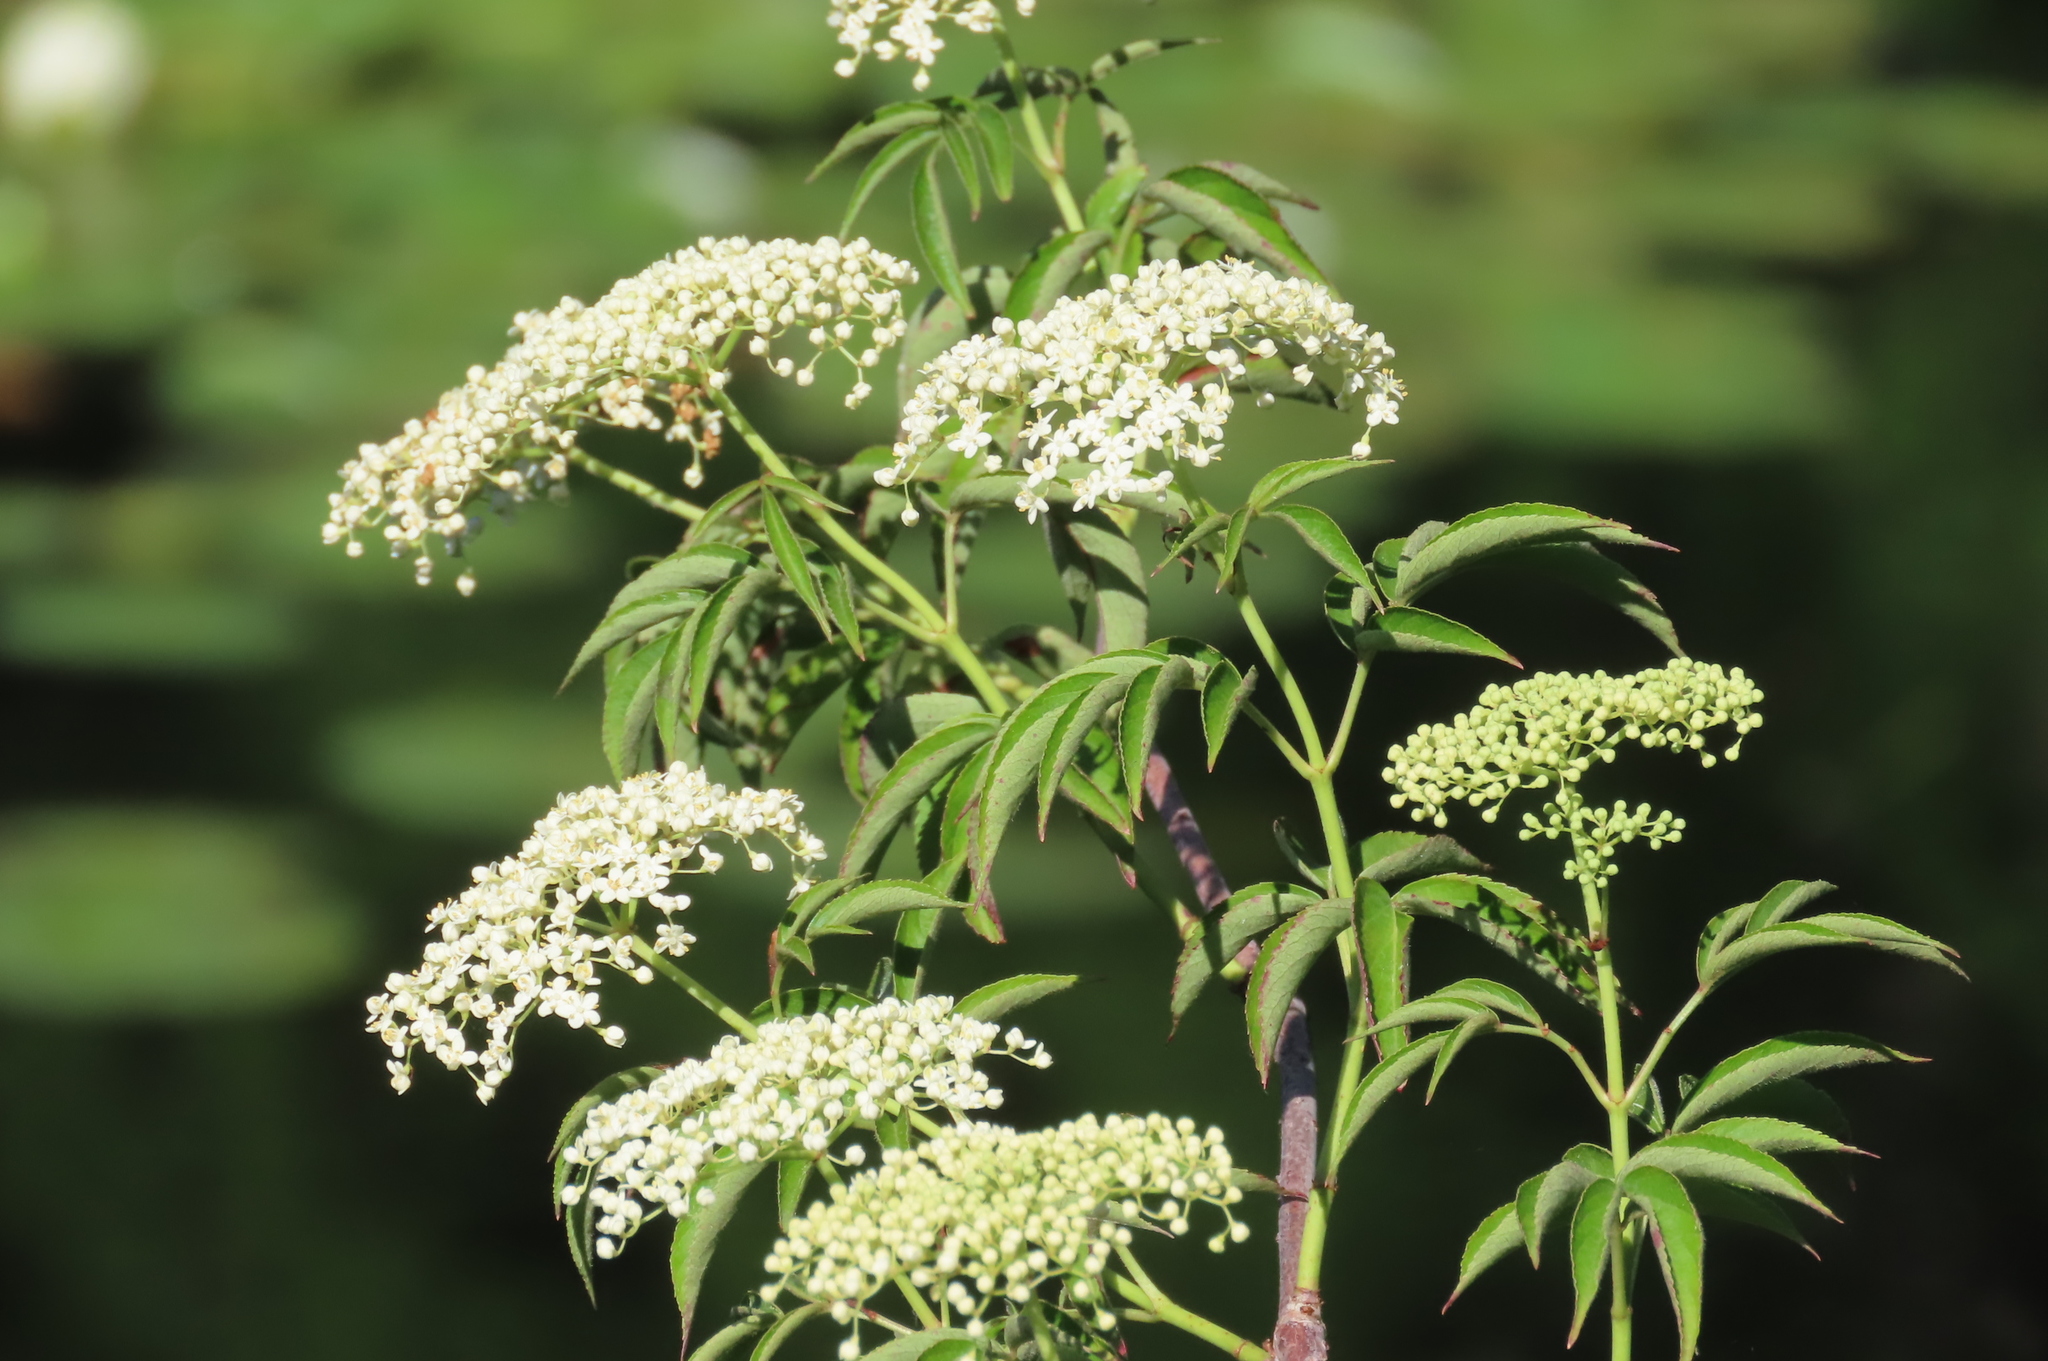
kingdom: Plantae
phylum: Tracheophyta
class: Magnoliopsida
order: Dipsacales
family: Viburnaceae
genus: Sambucus
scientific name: Sambucus canadensis
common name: American elder
